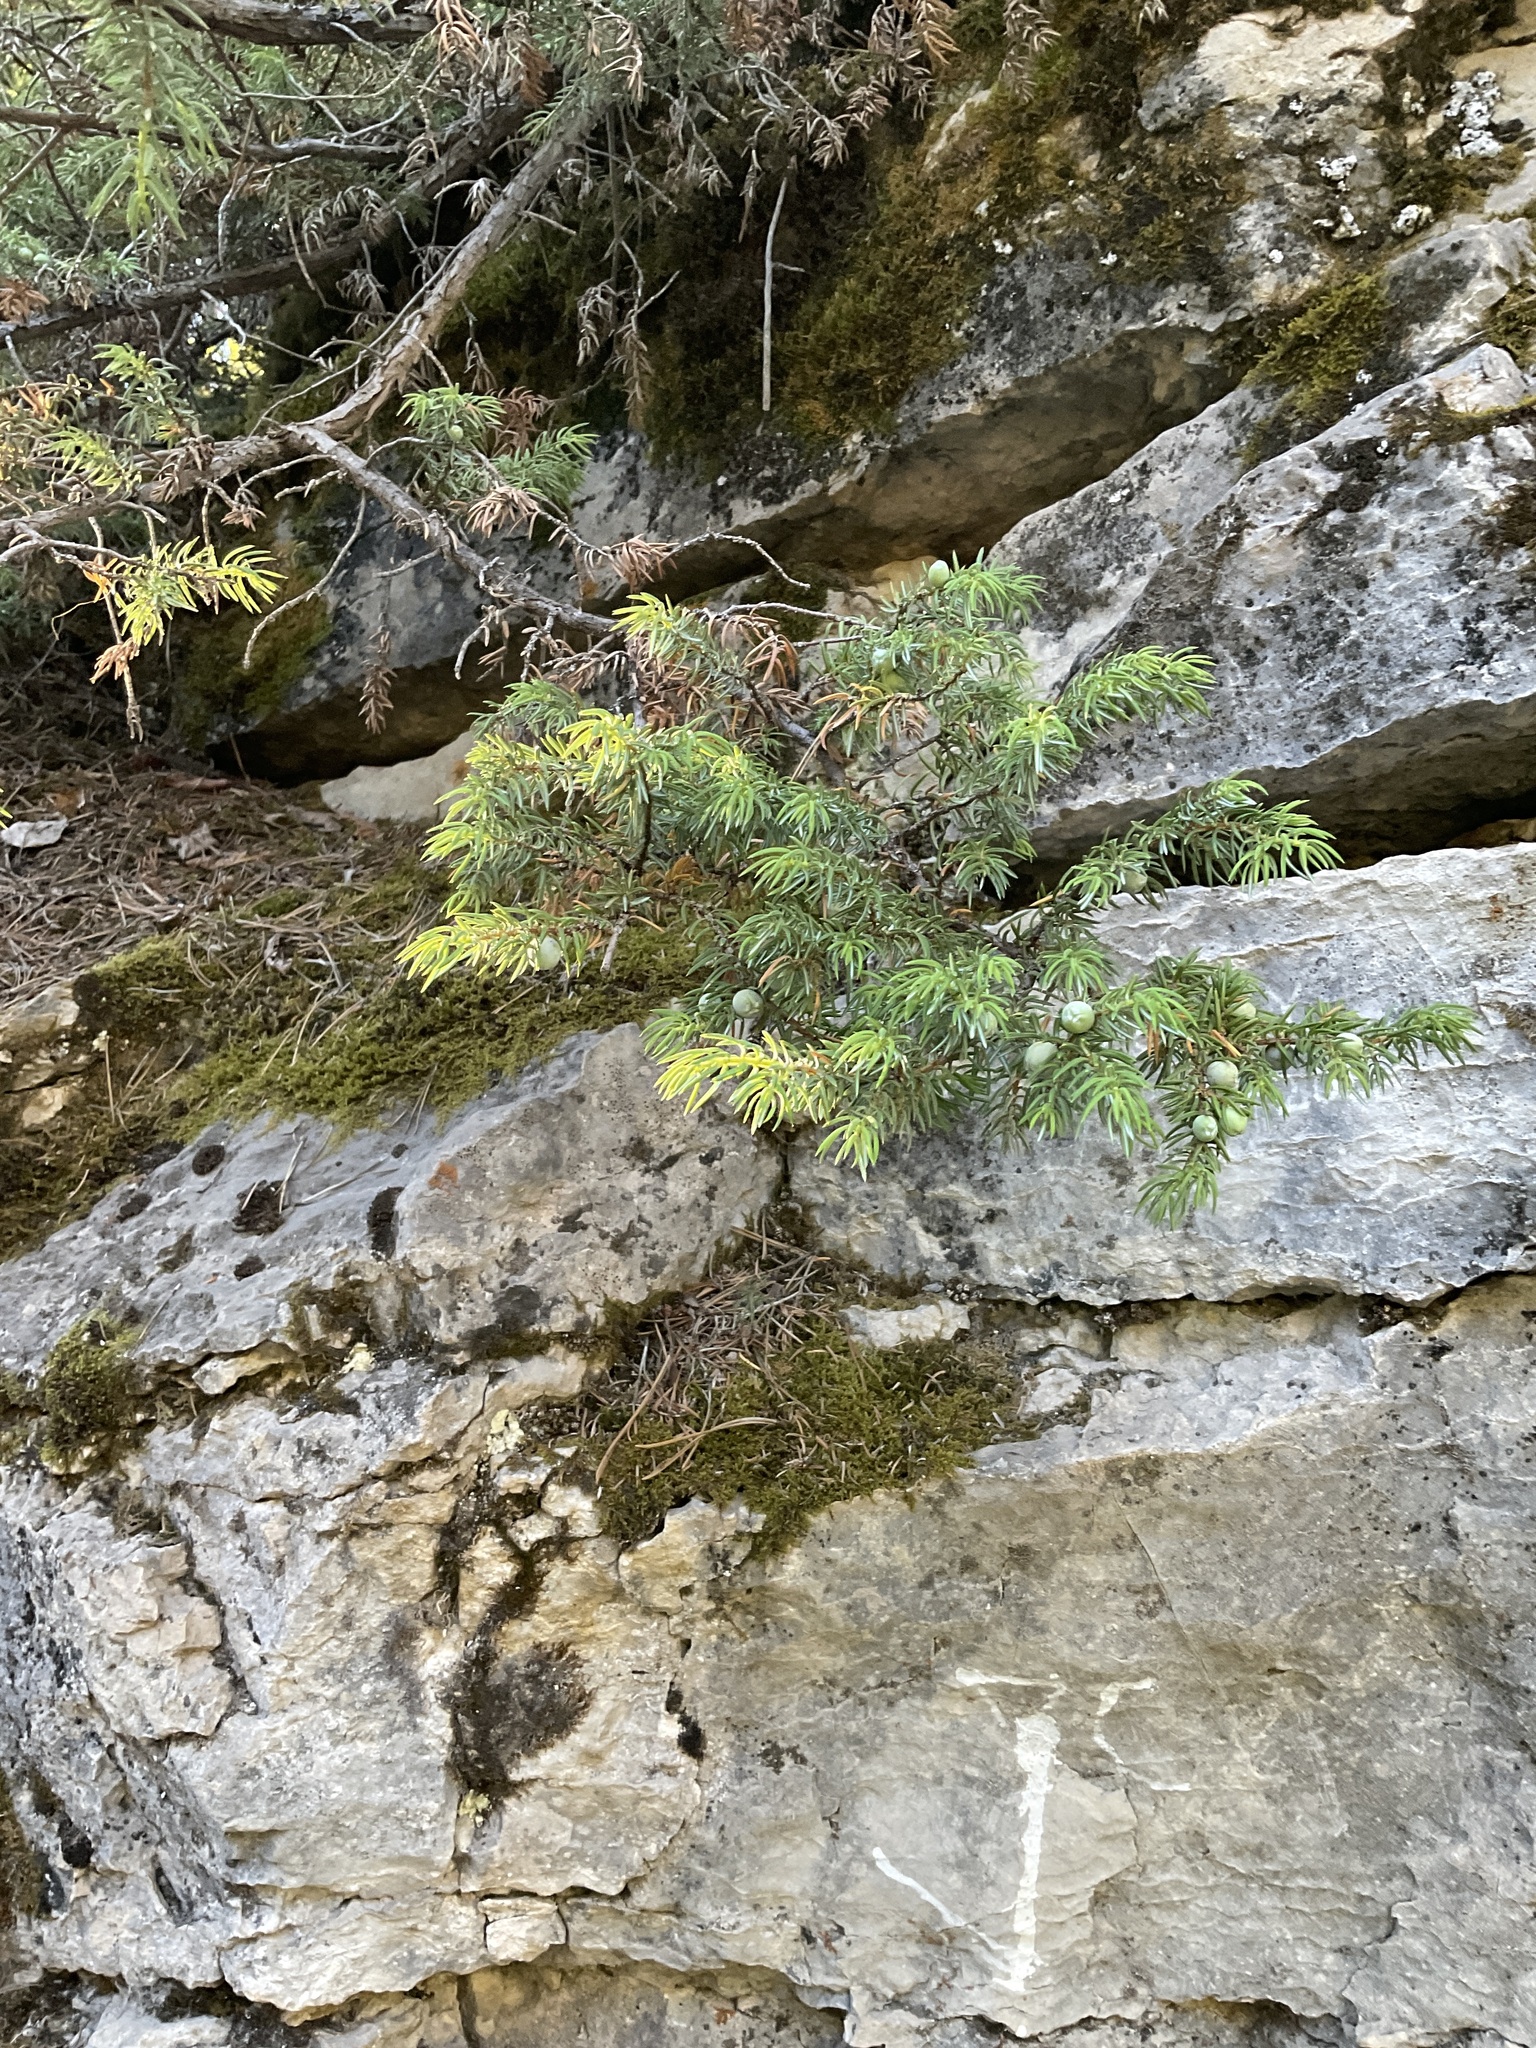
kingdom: Plantae
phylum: Tracheophyta
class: Pinopsida
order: Pinales
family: Cupressaceae
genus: Juniperus
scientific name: Juniperus communis
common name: Common juniper
